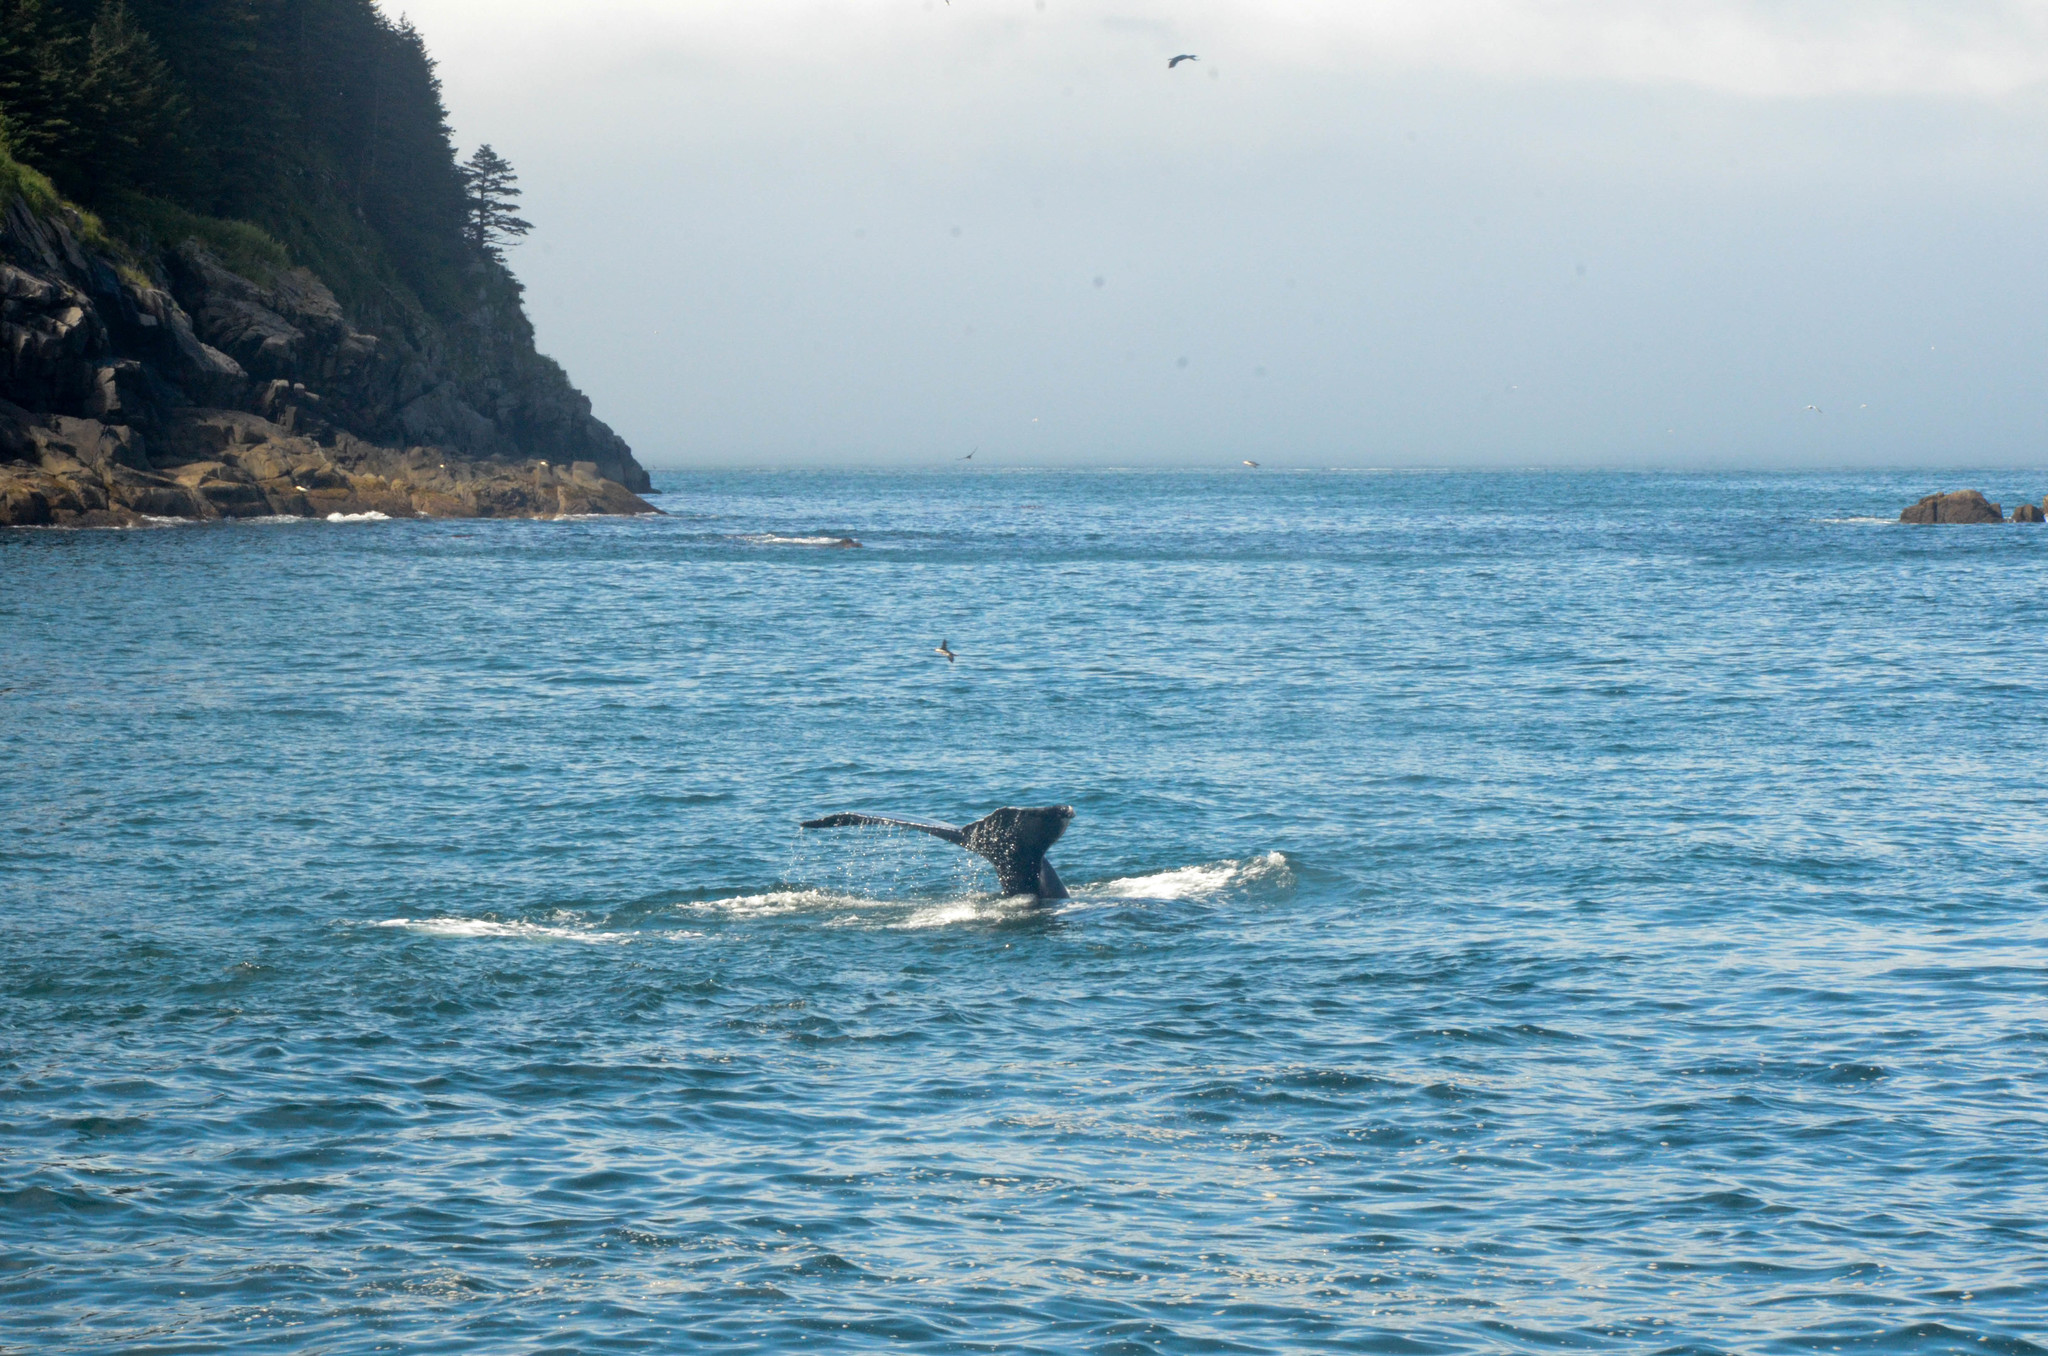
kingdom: Animalia
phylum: Chordata
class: Mammalia
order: Cetacea
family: Balaenopteridae
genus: Megaptera
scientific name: Megaptera novaeangliae
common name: Humpback whale
